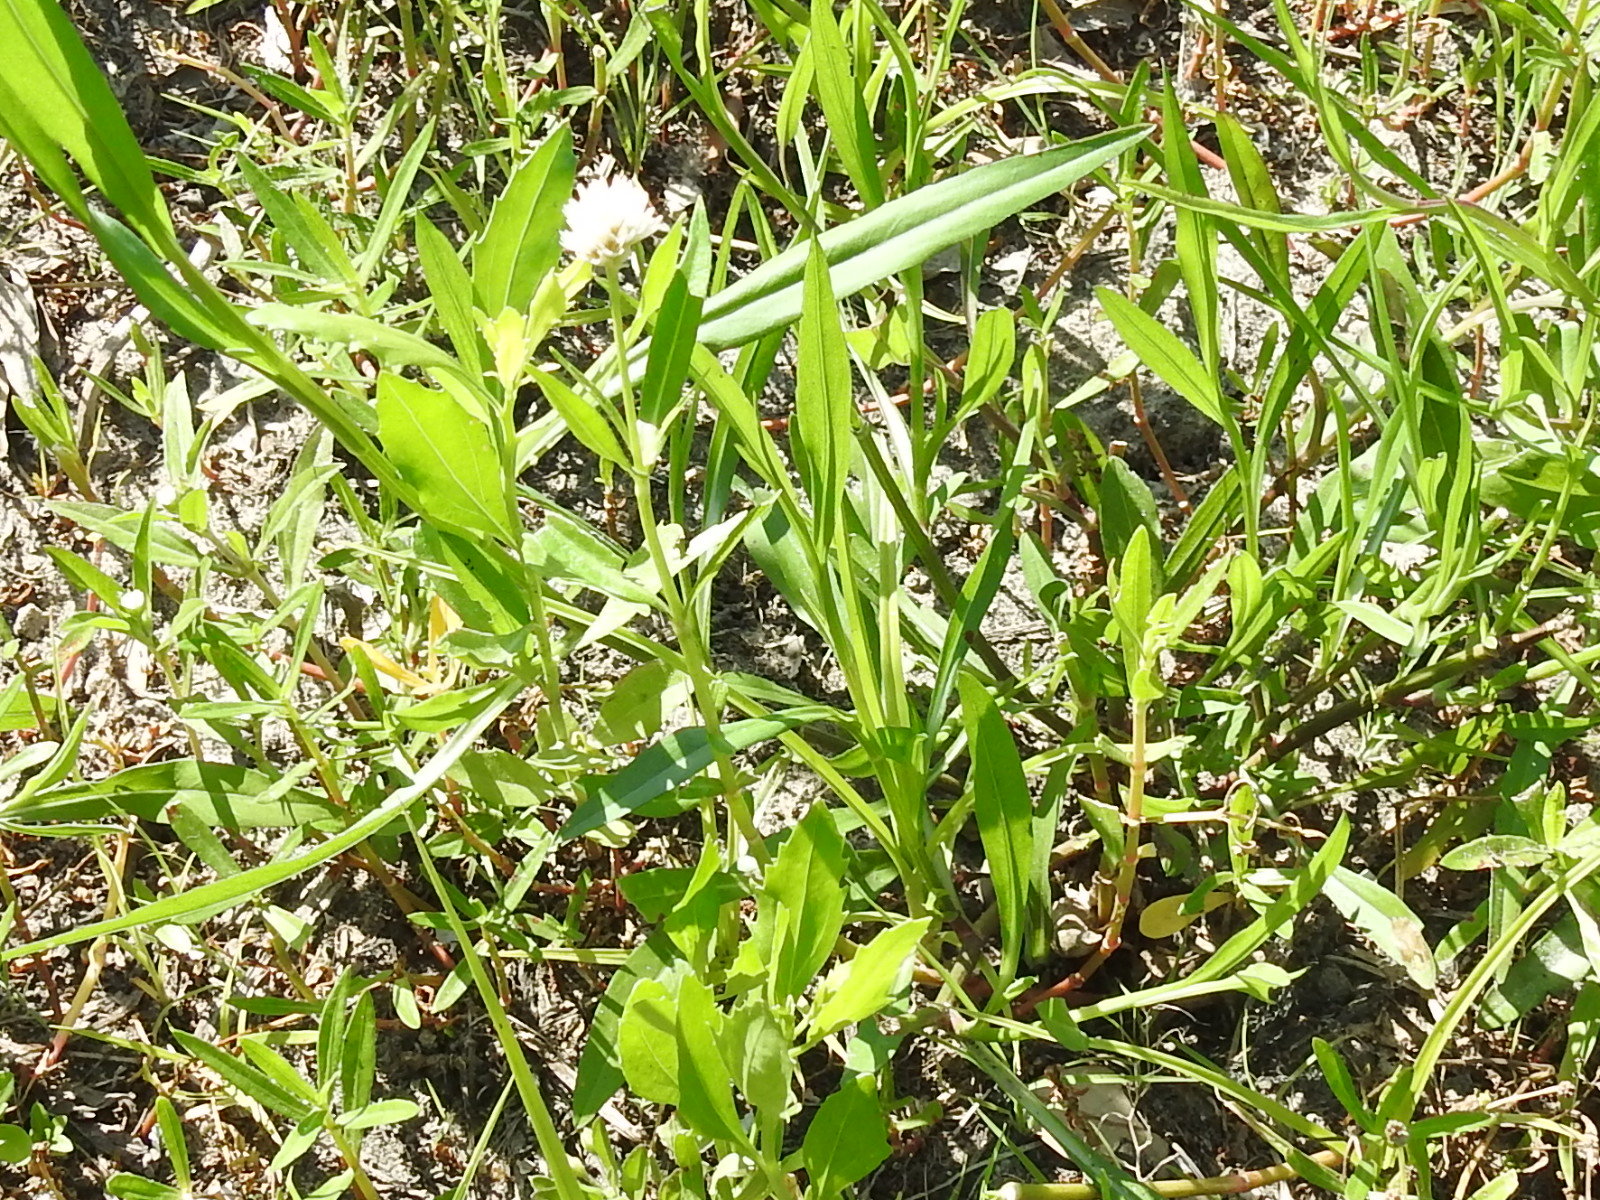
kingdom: Plantae
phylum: Tracheophyta
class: Magnoliopsida
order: Caryophyllales
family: Amaranthaceae
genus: Alternanthera
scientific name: Alternanthera philoxeroides
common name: Alligatorweed
